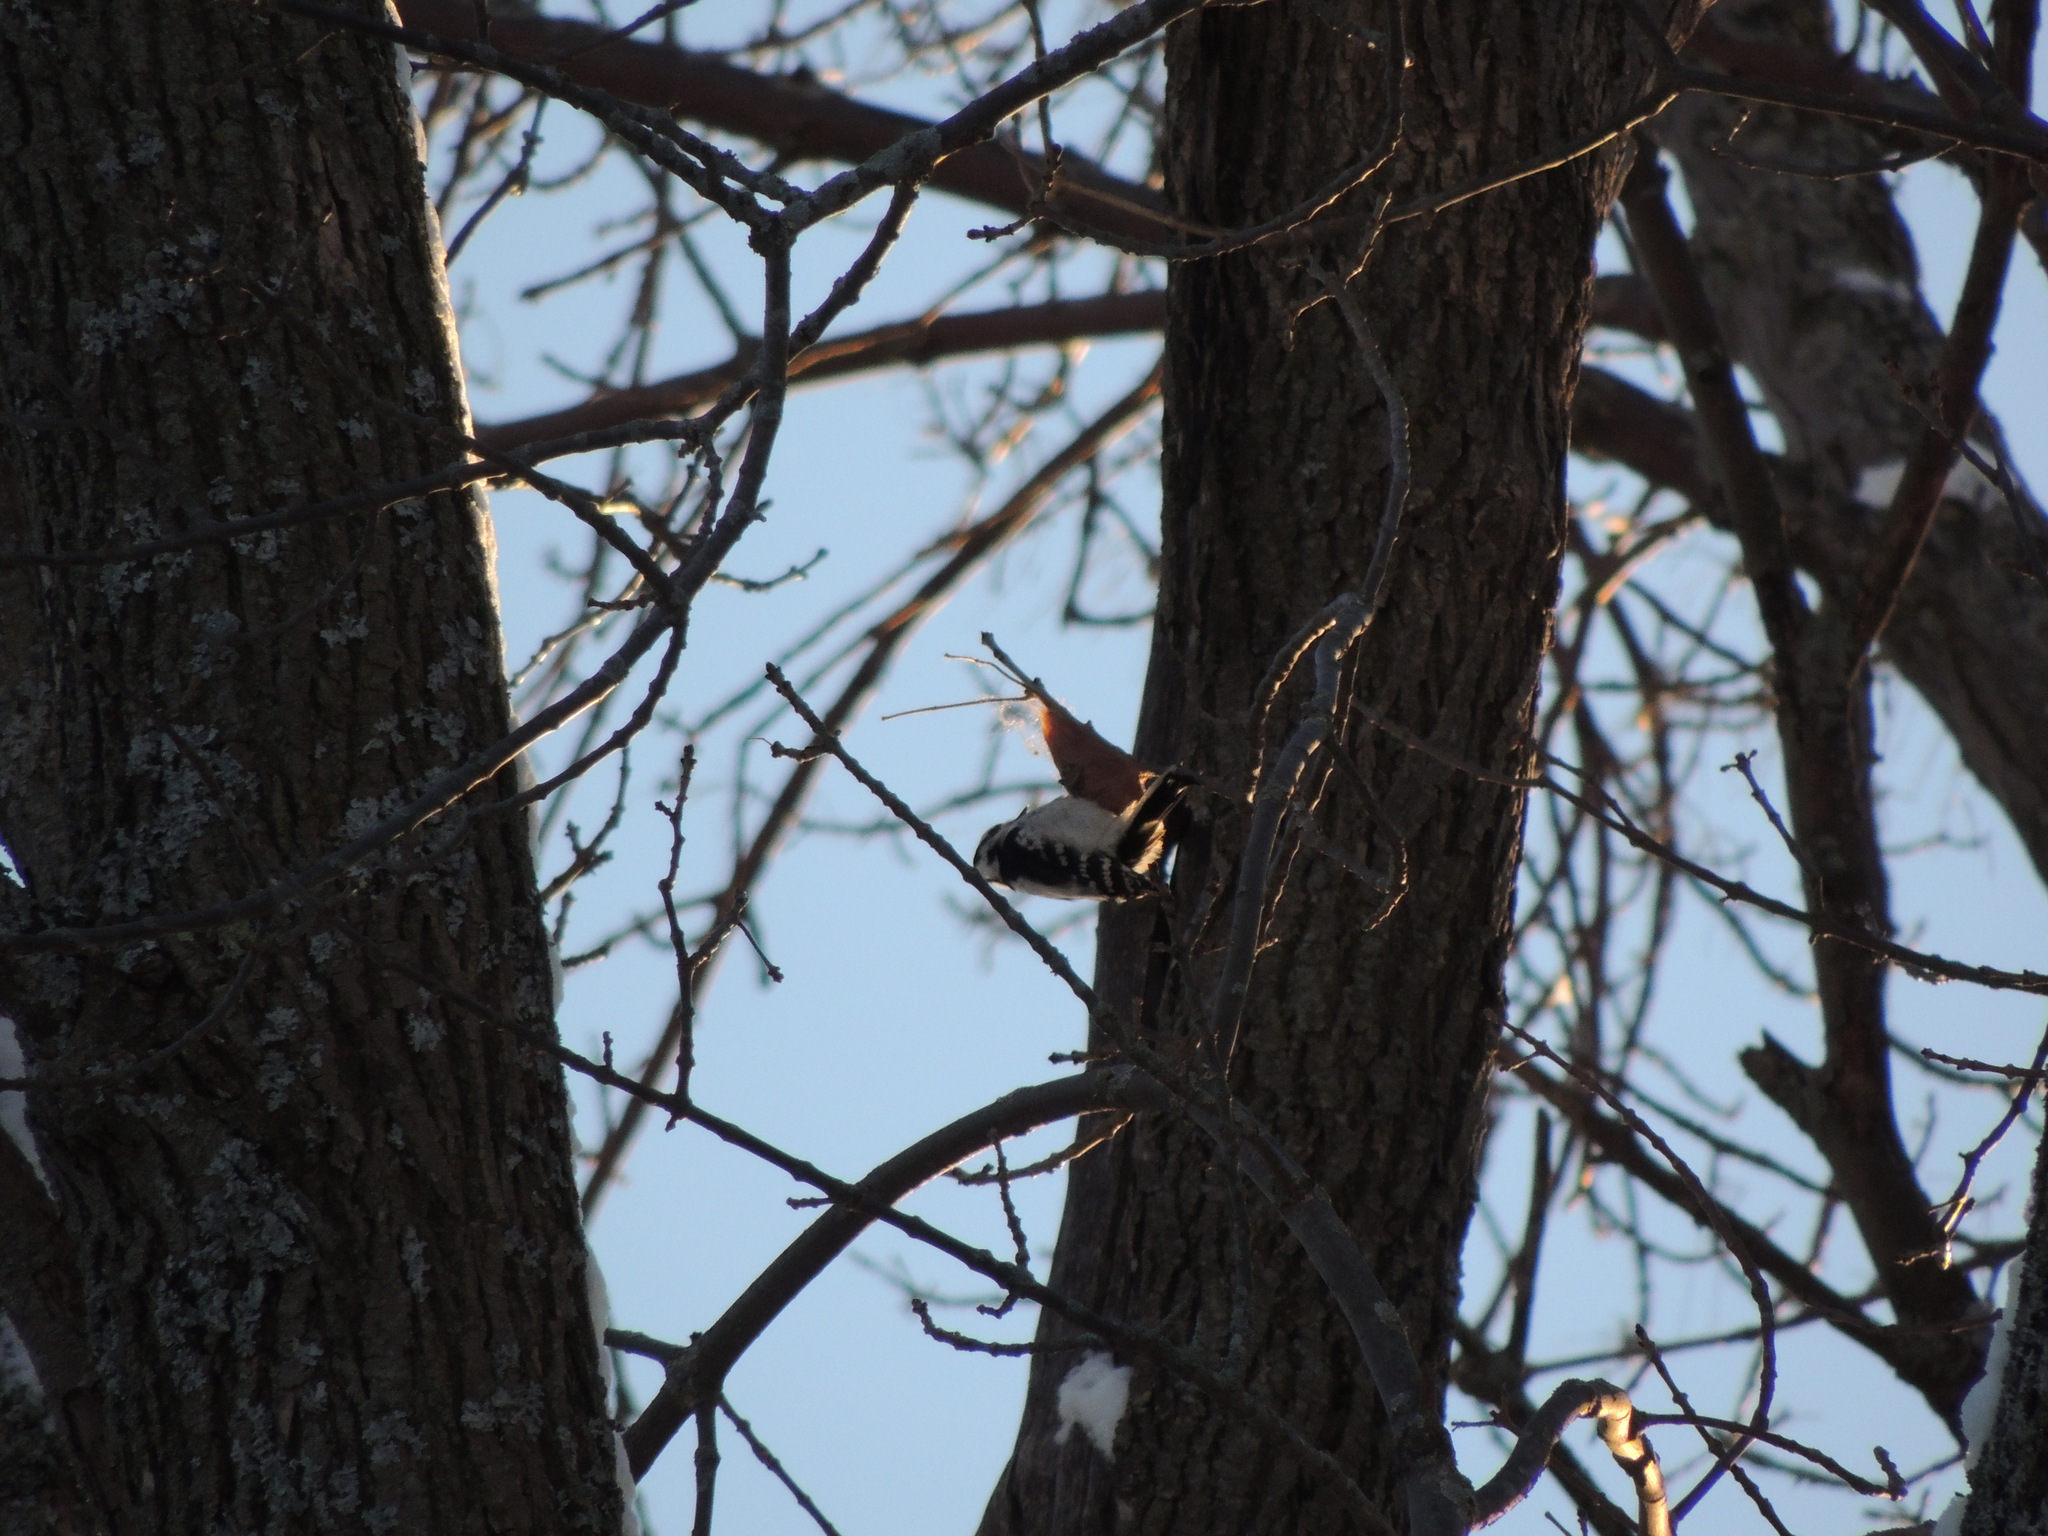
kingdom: Animalia
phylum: Chordata
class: Aves
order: Piciformes
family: Picidae
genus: Dryobates
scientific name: Dryobates pubescens
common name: Downy woodpecker
